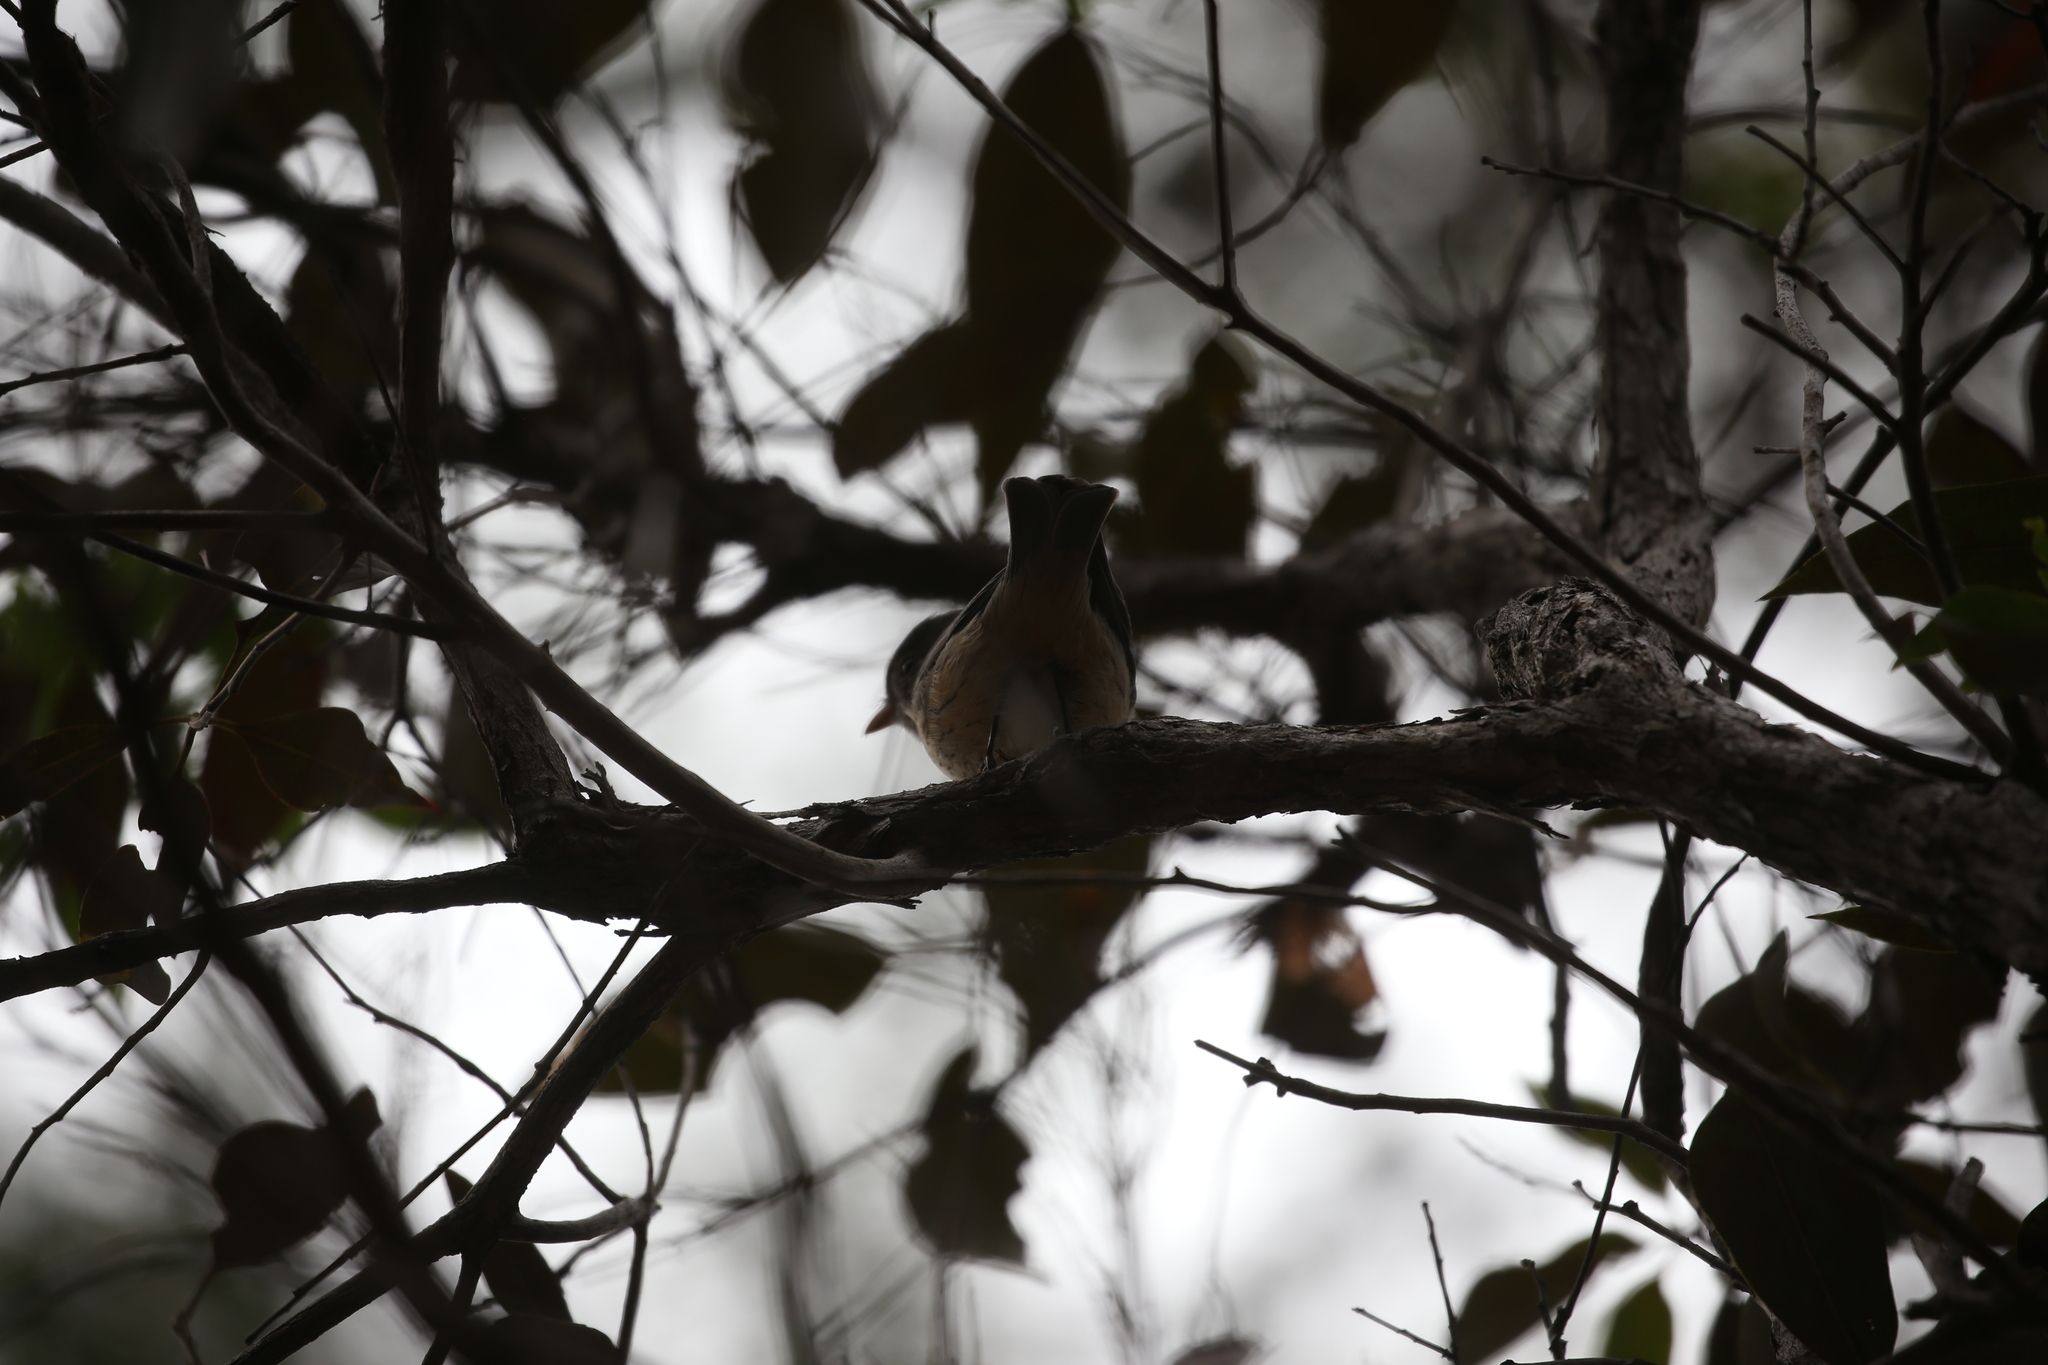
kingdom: Animalia
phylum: Chordata
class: Aves
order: Passeriformes
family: Pachycephalidae
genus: Pachycephala
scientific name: Pachycephala rufiventris
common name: Rufous whistler
